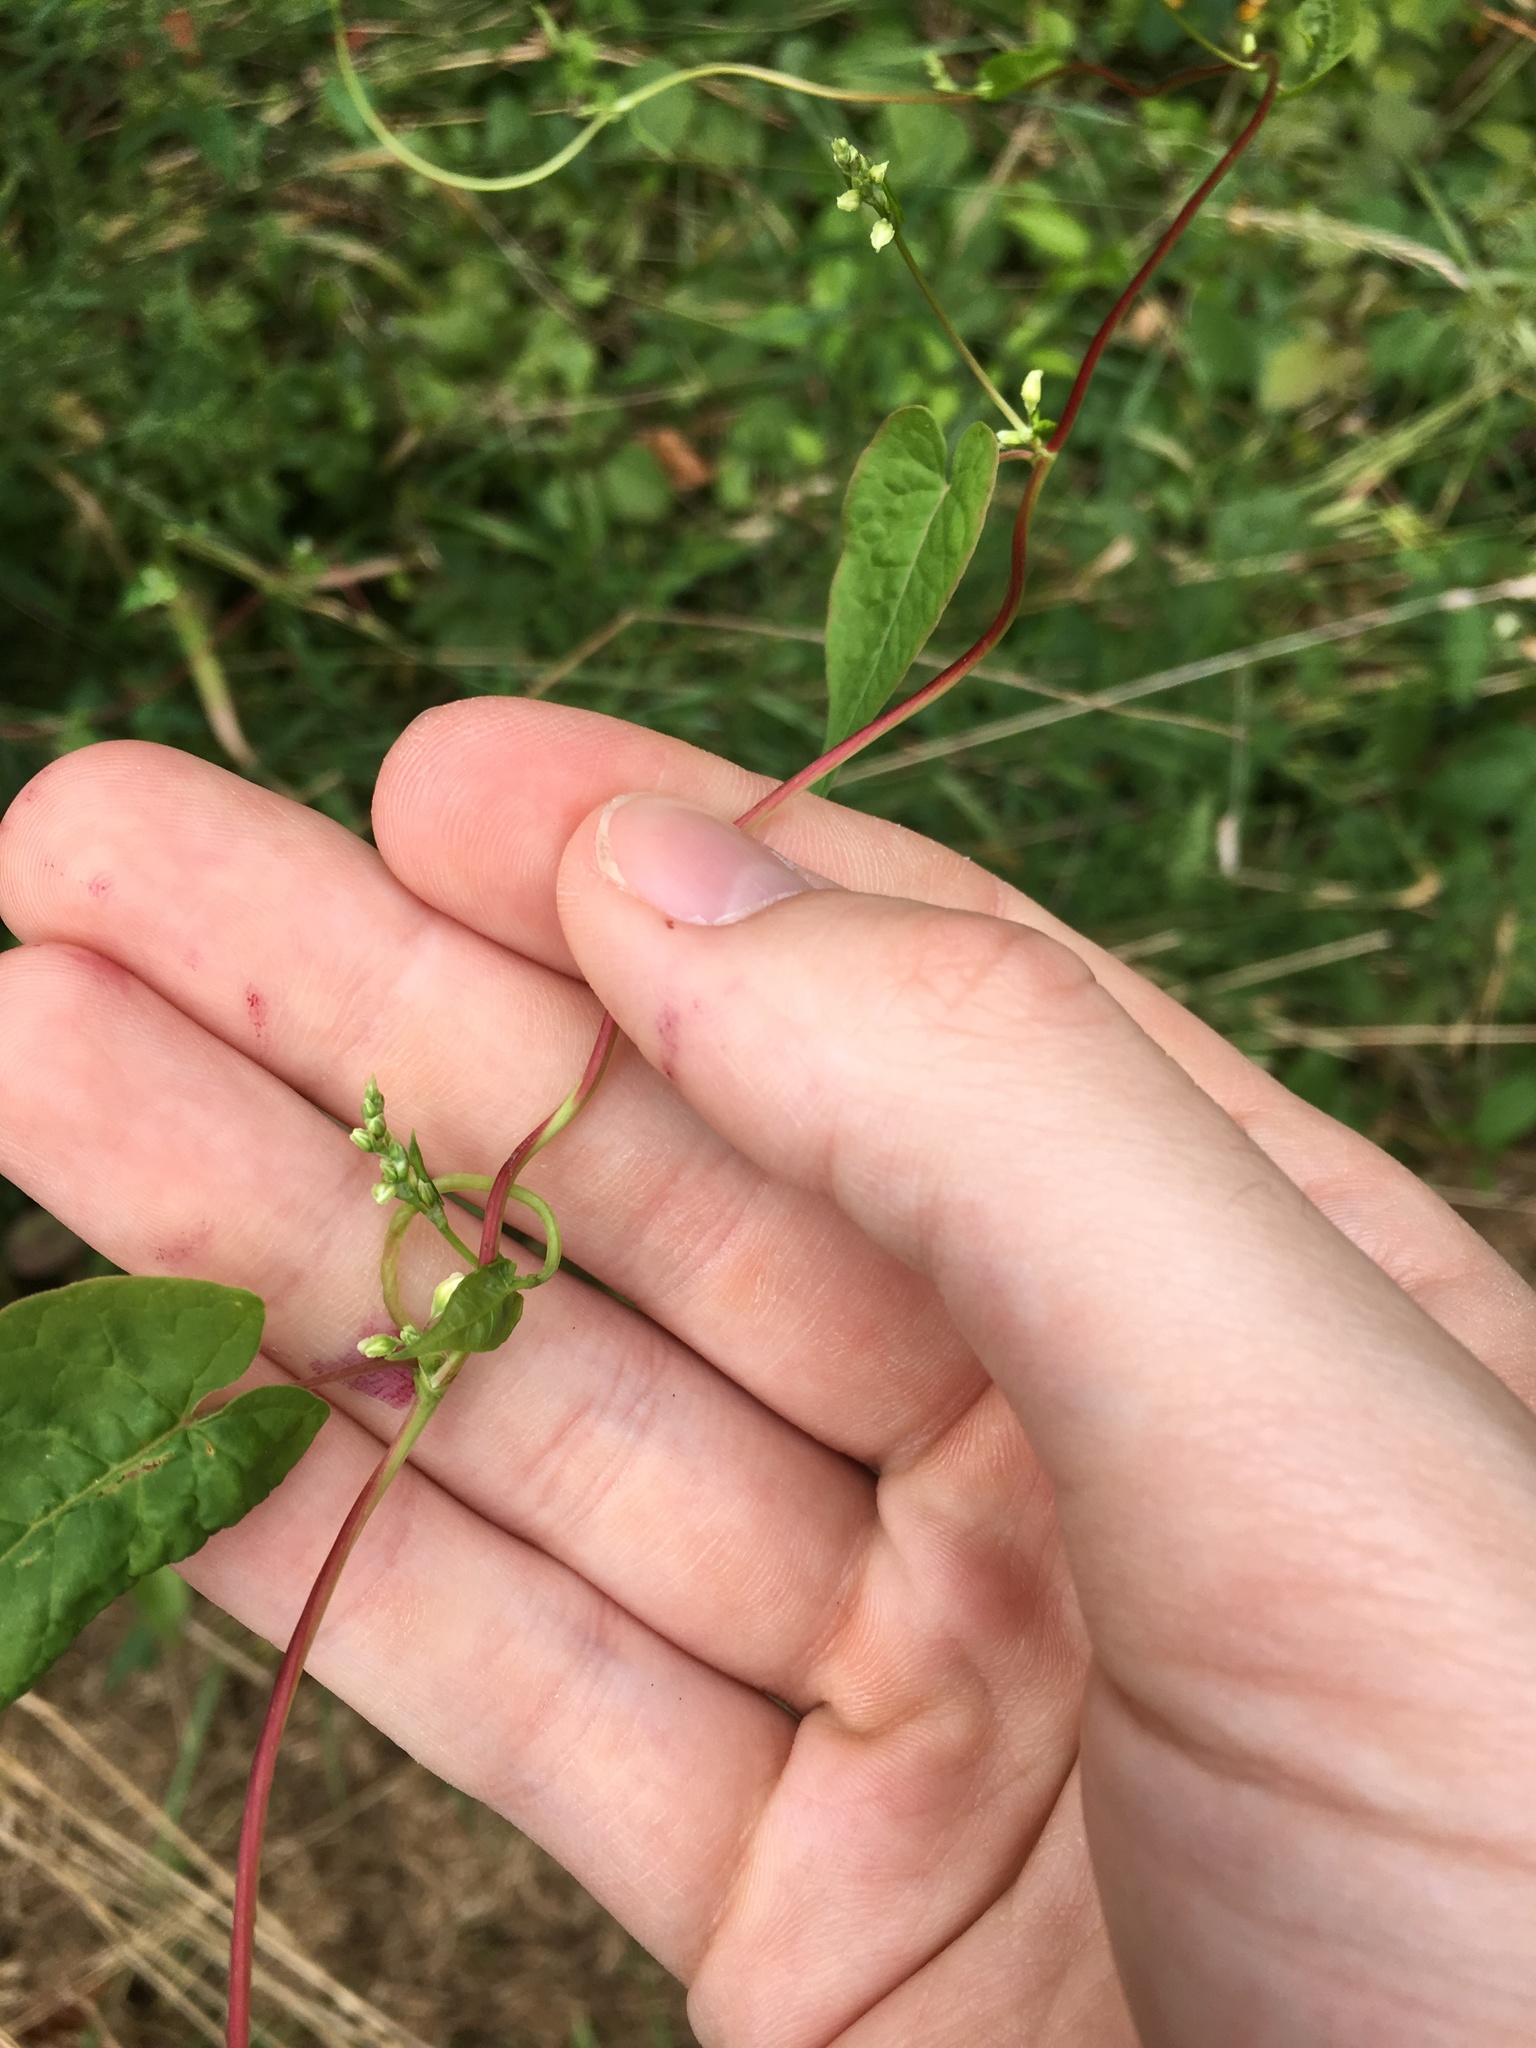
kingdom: Plantae
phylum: Tracheophyta
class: Magnoliopsida
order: Caryophyllales
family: Polygonaceae
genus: Fallopia
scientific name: Fallopia scandens
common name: Climbing false buckwheat
